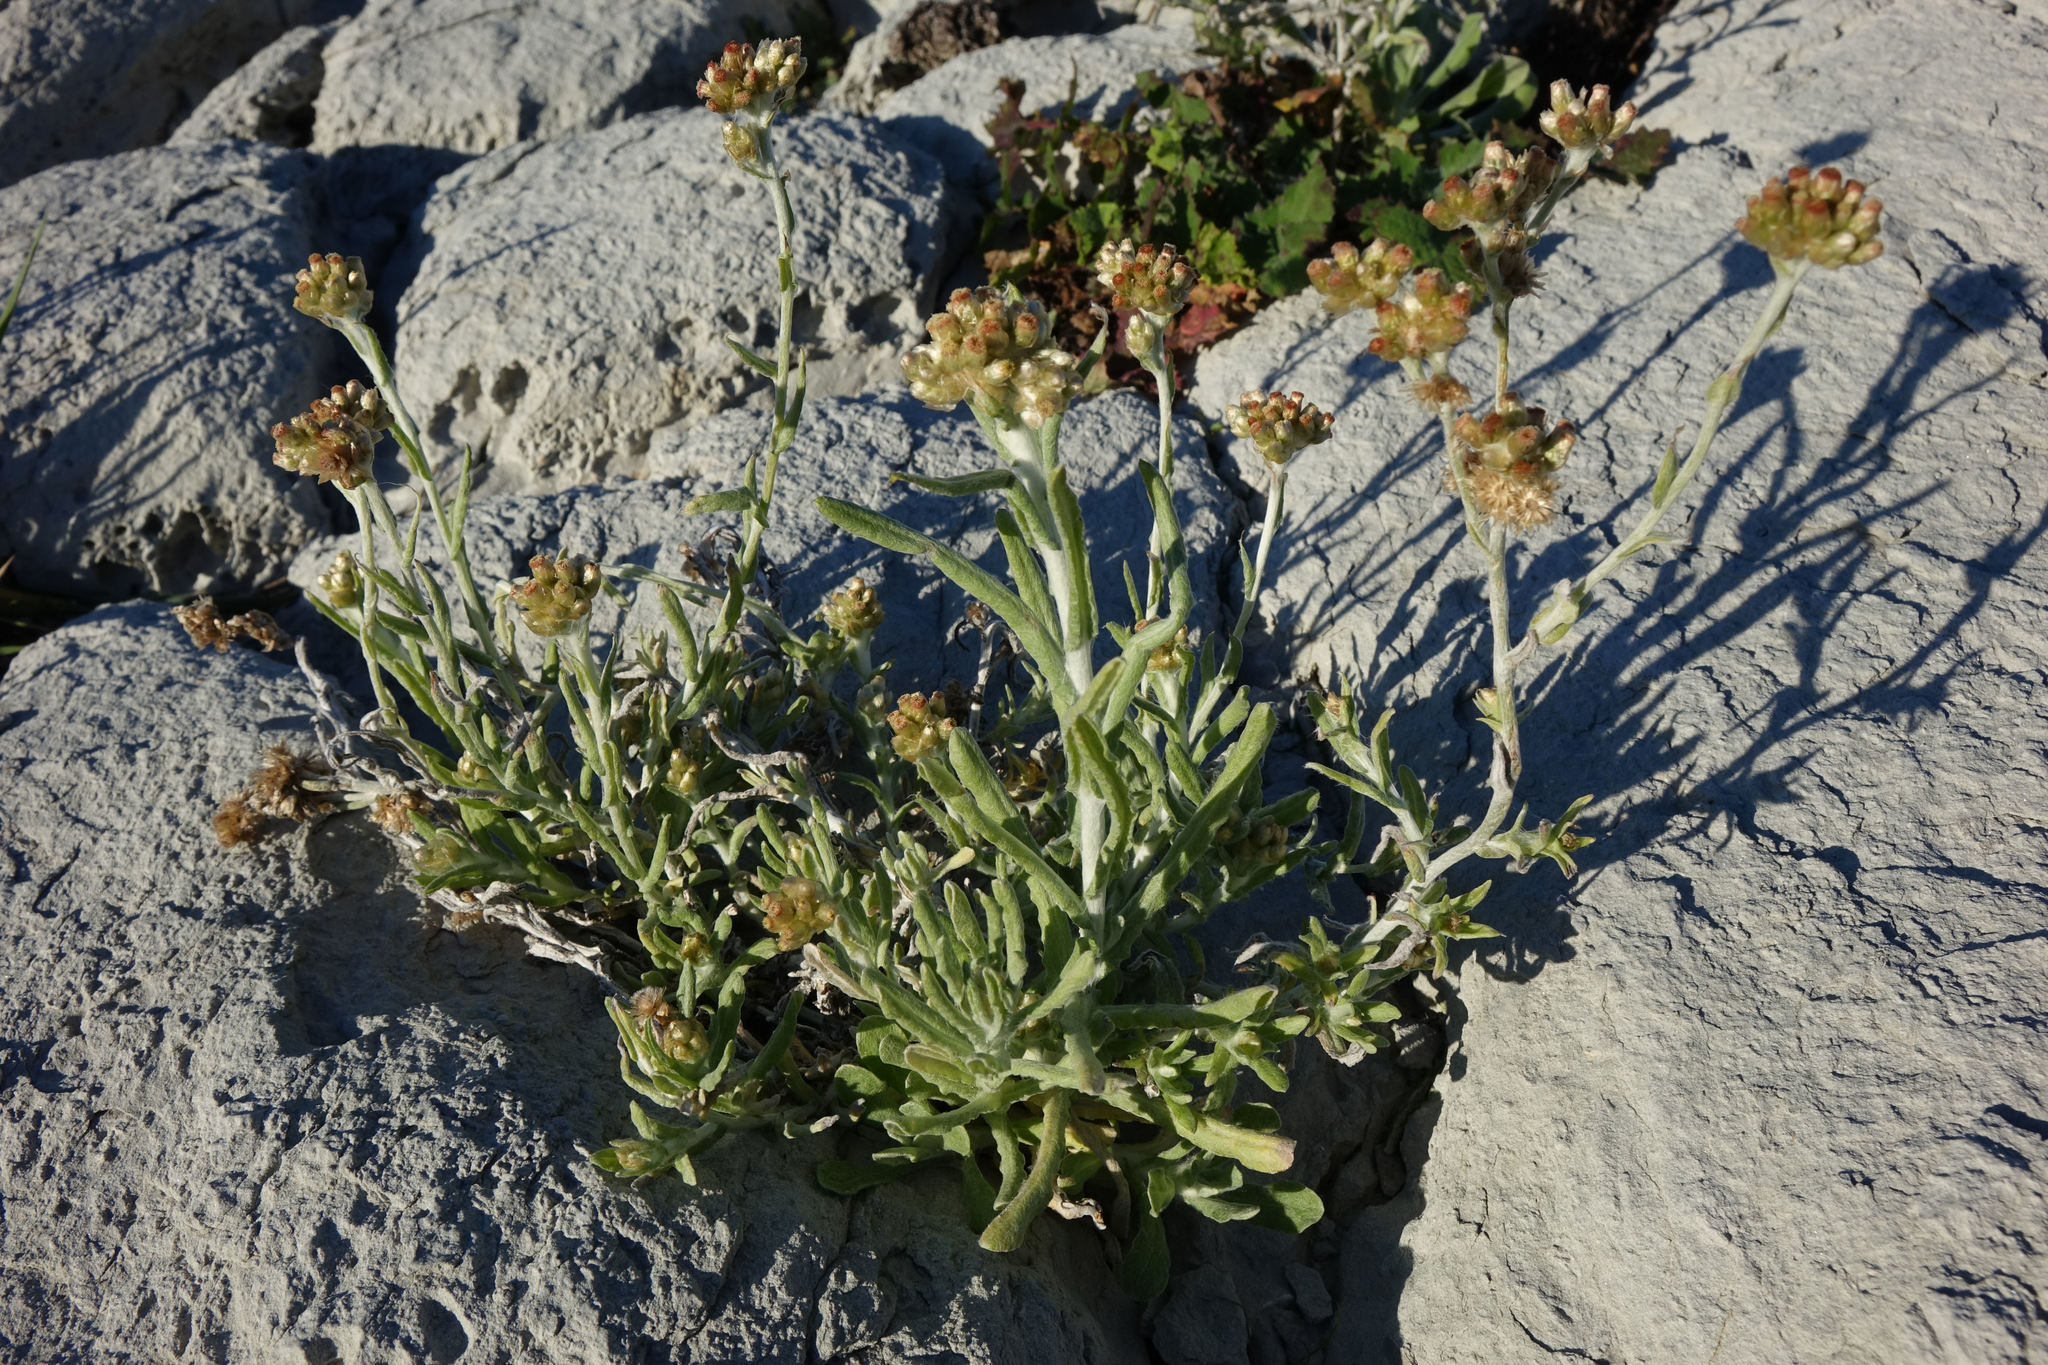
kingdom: Plantae
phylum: Tracheophyta
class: Magnoliopsida
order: Asterales
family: Asteraceae
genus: Helichrysum
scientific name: Helichrysum luteoalbum
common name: Daisy
